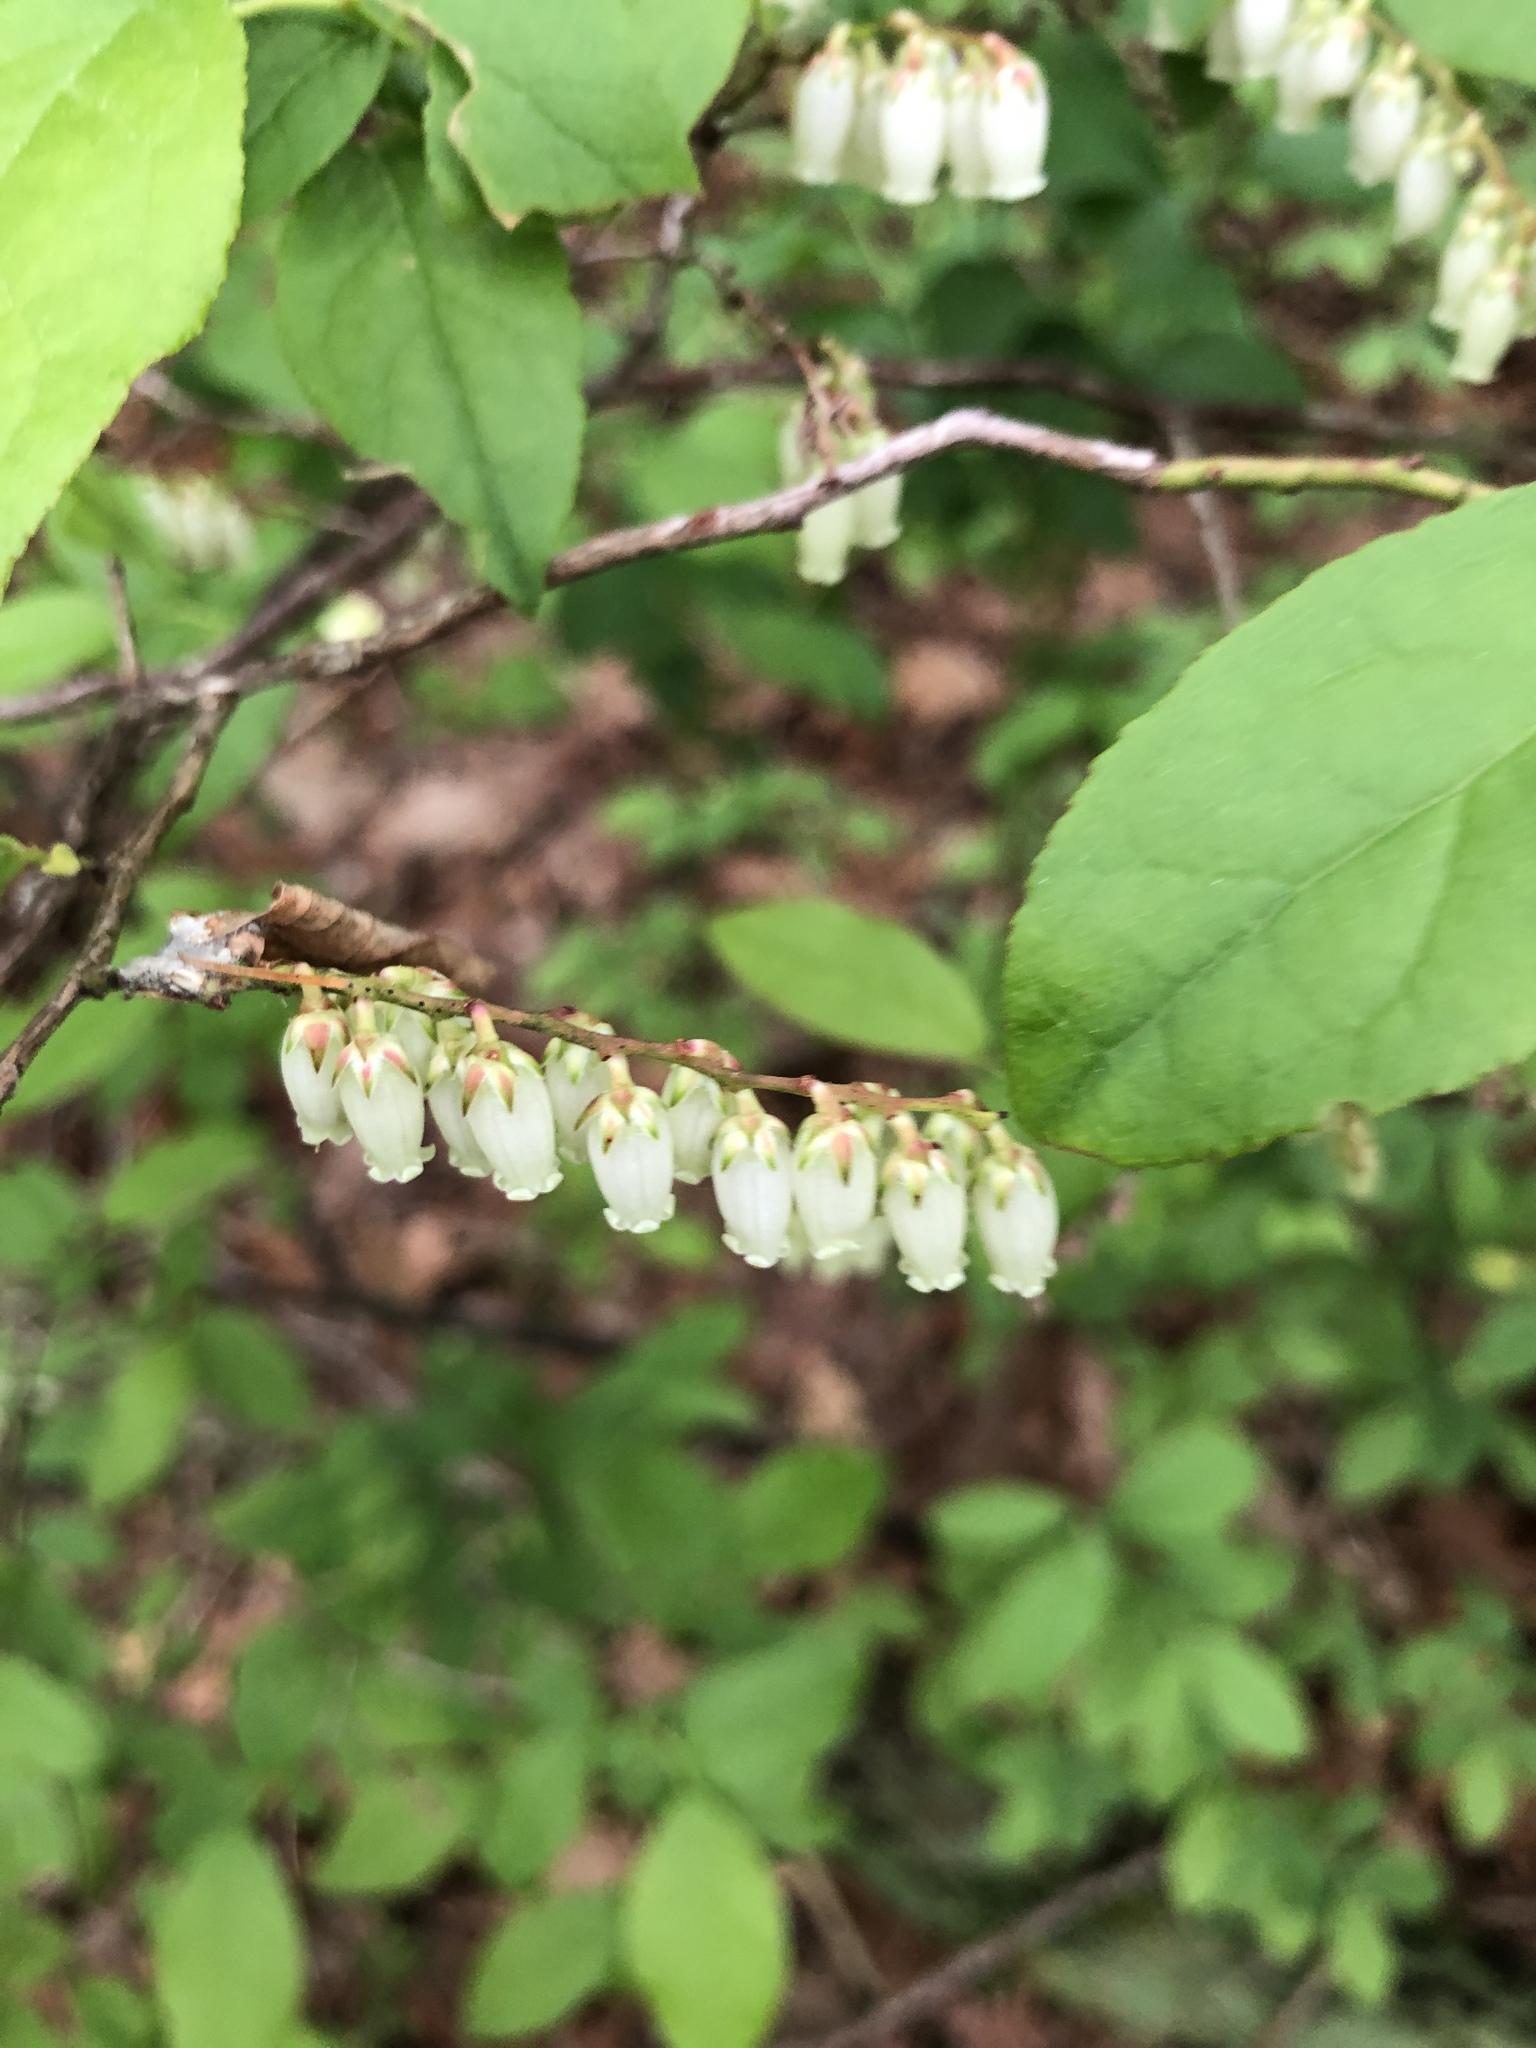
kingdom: Plantae
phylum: Tracheophyta
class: Magnoliopsida
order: Ericales
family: Ericaceae
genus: Eubotrys
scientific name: Eubotrys racemosa
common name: Fetterbush
